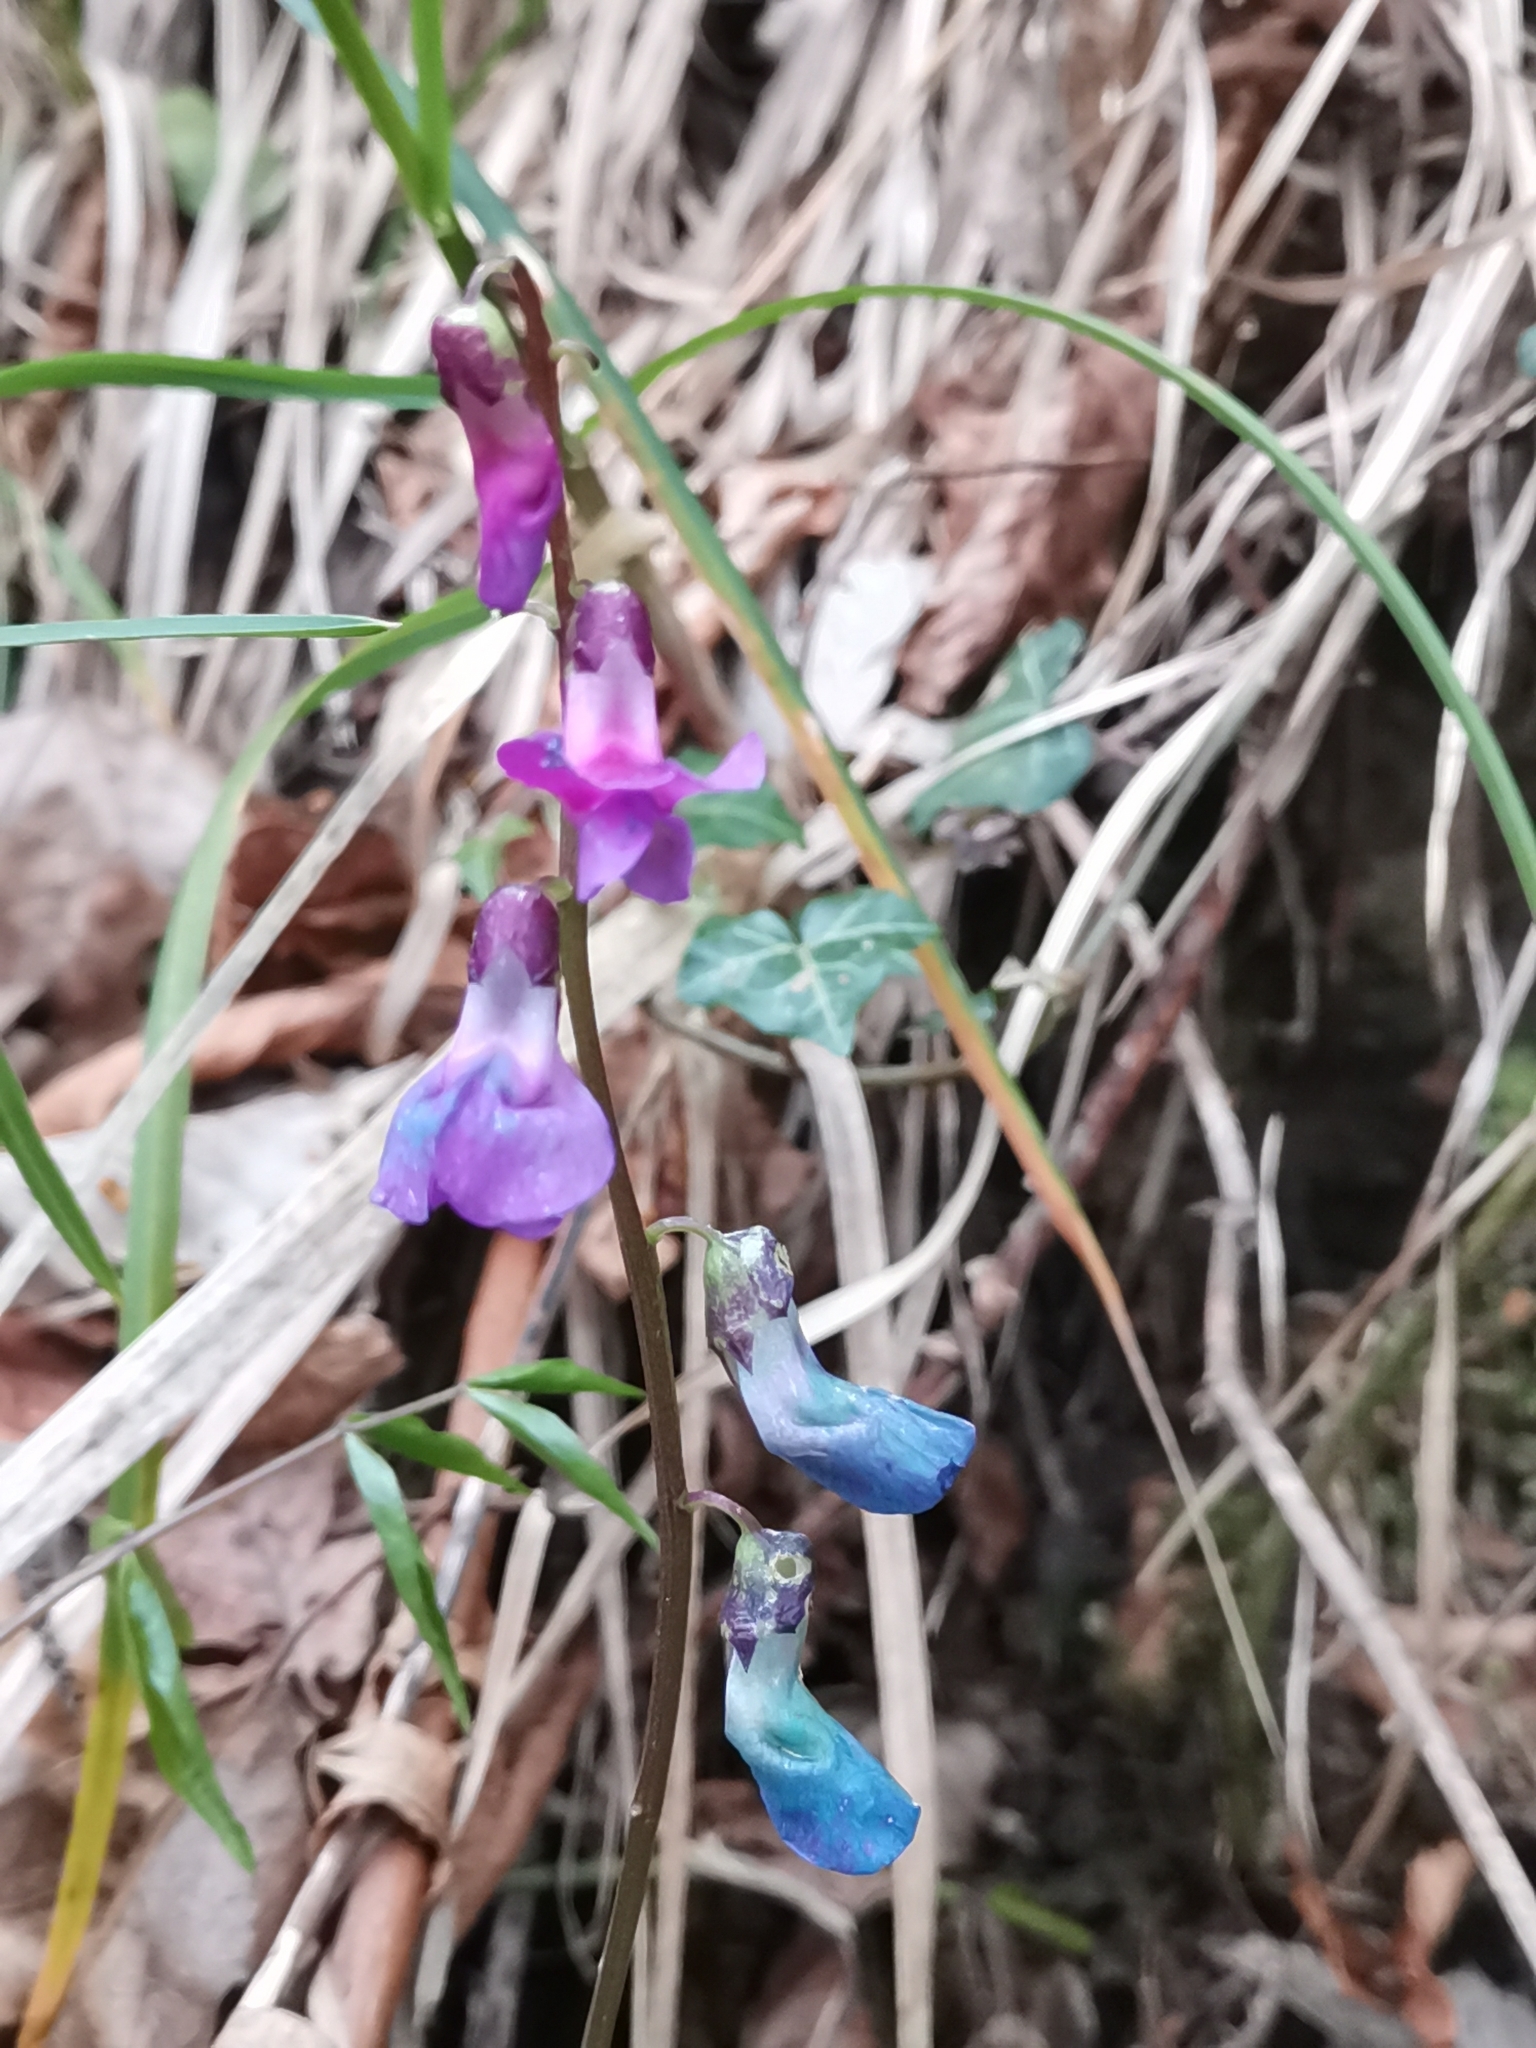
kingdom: Plantae
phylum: Tracheophyta
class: Magnoliopsida
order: Fabales
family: Fabaceae
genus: Lathyrus
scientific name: Lathyrus vernus
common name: Spring pea
